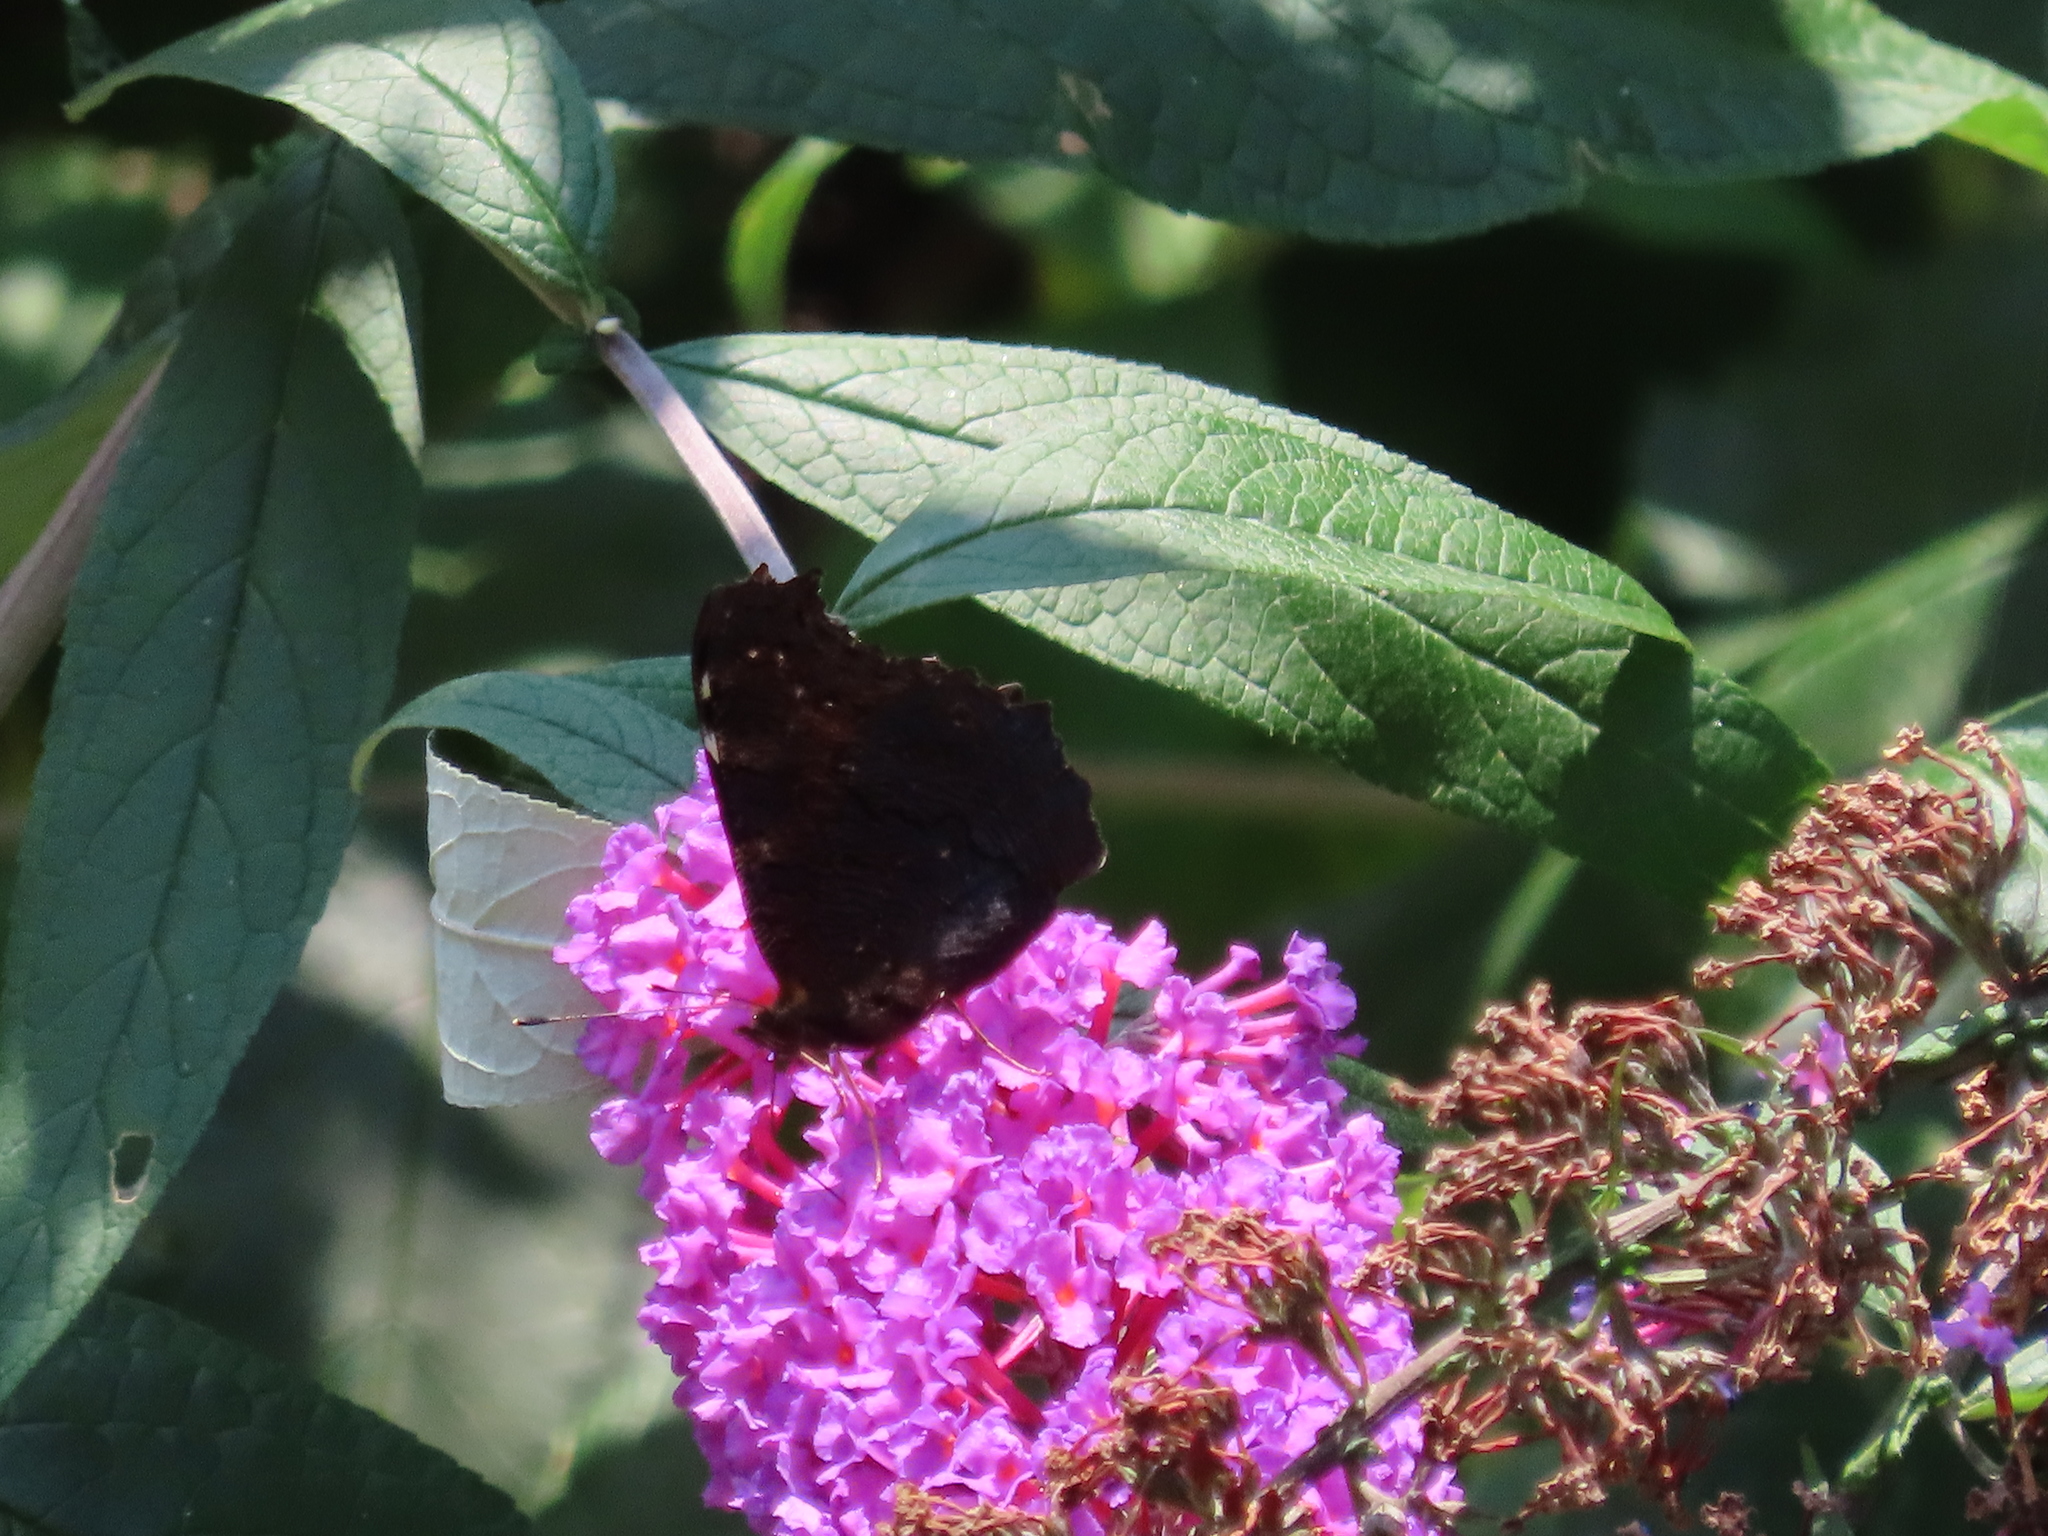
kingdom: Animalia
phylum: Arthropoda
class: Insecta
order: Lepidoptera
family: Nymphalidae
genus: Aglais
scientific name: Aglais io
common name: Peacock
